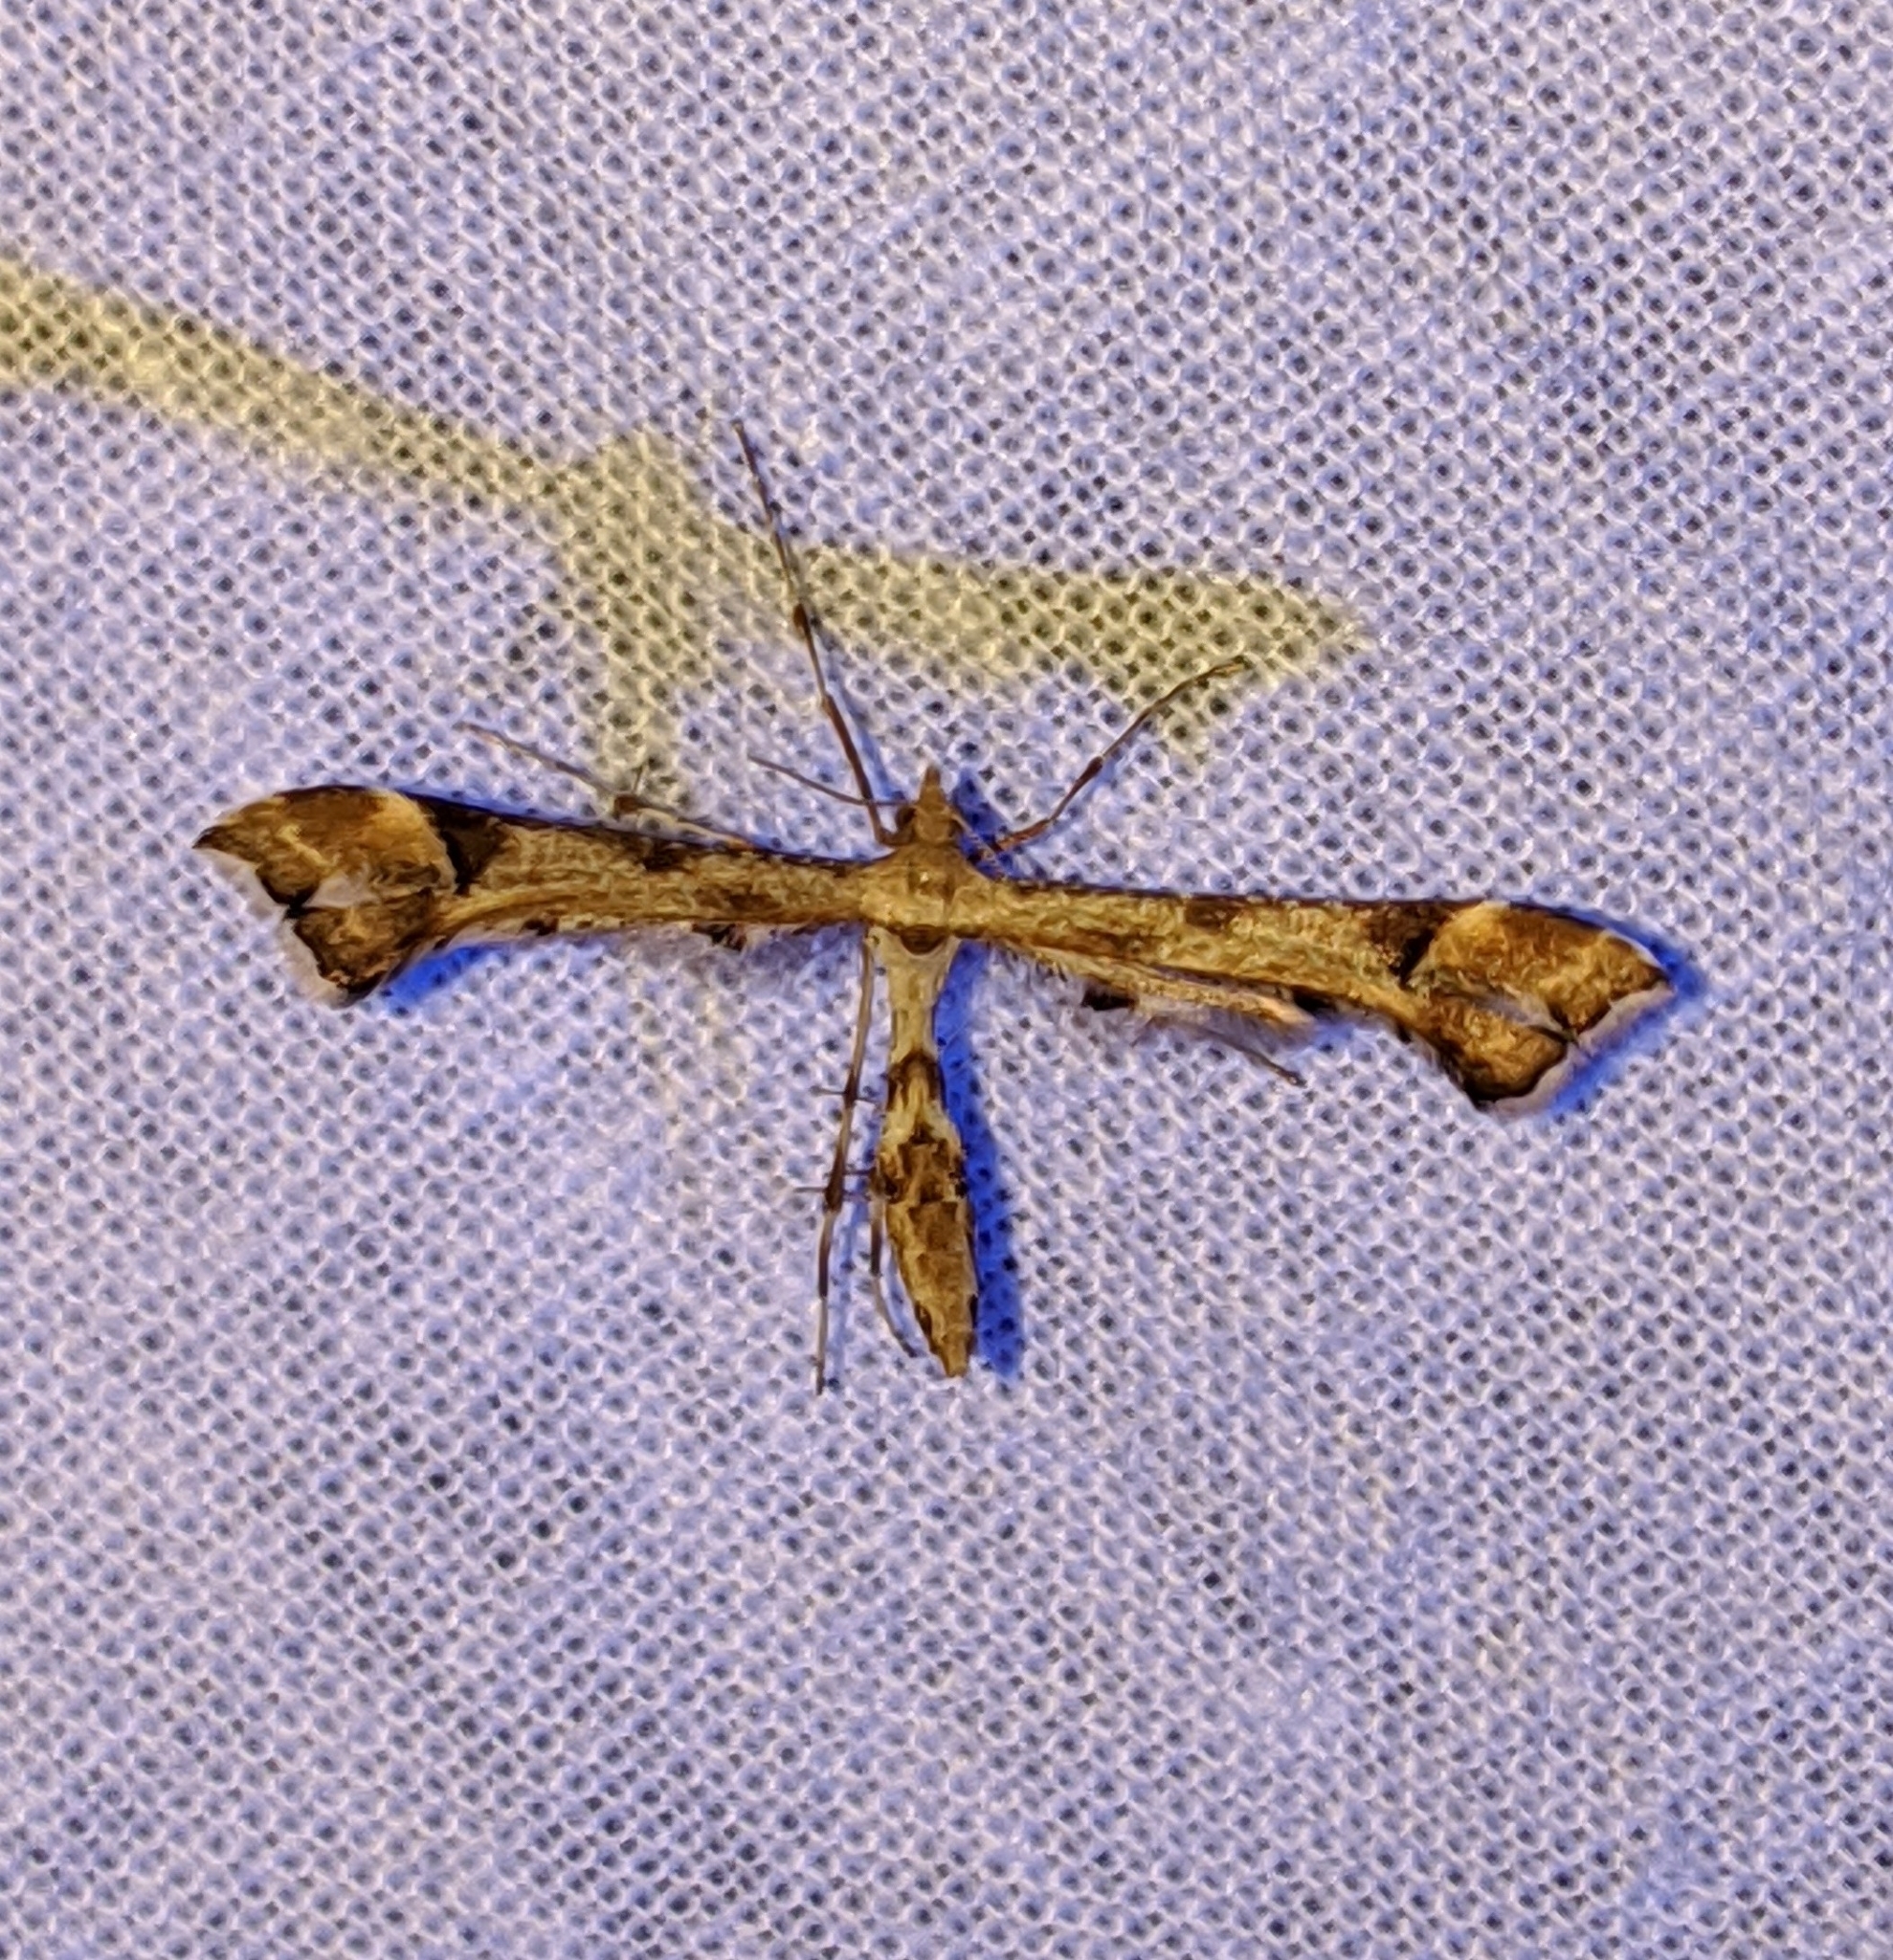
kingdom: Animalia
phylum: Arthropoda
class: Insecta
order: Lepidoptera
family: Pterophoridae
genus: Platyptilia
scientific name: Platyptilia carduidactylus
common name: Artichoke plume moth
